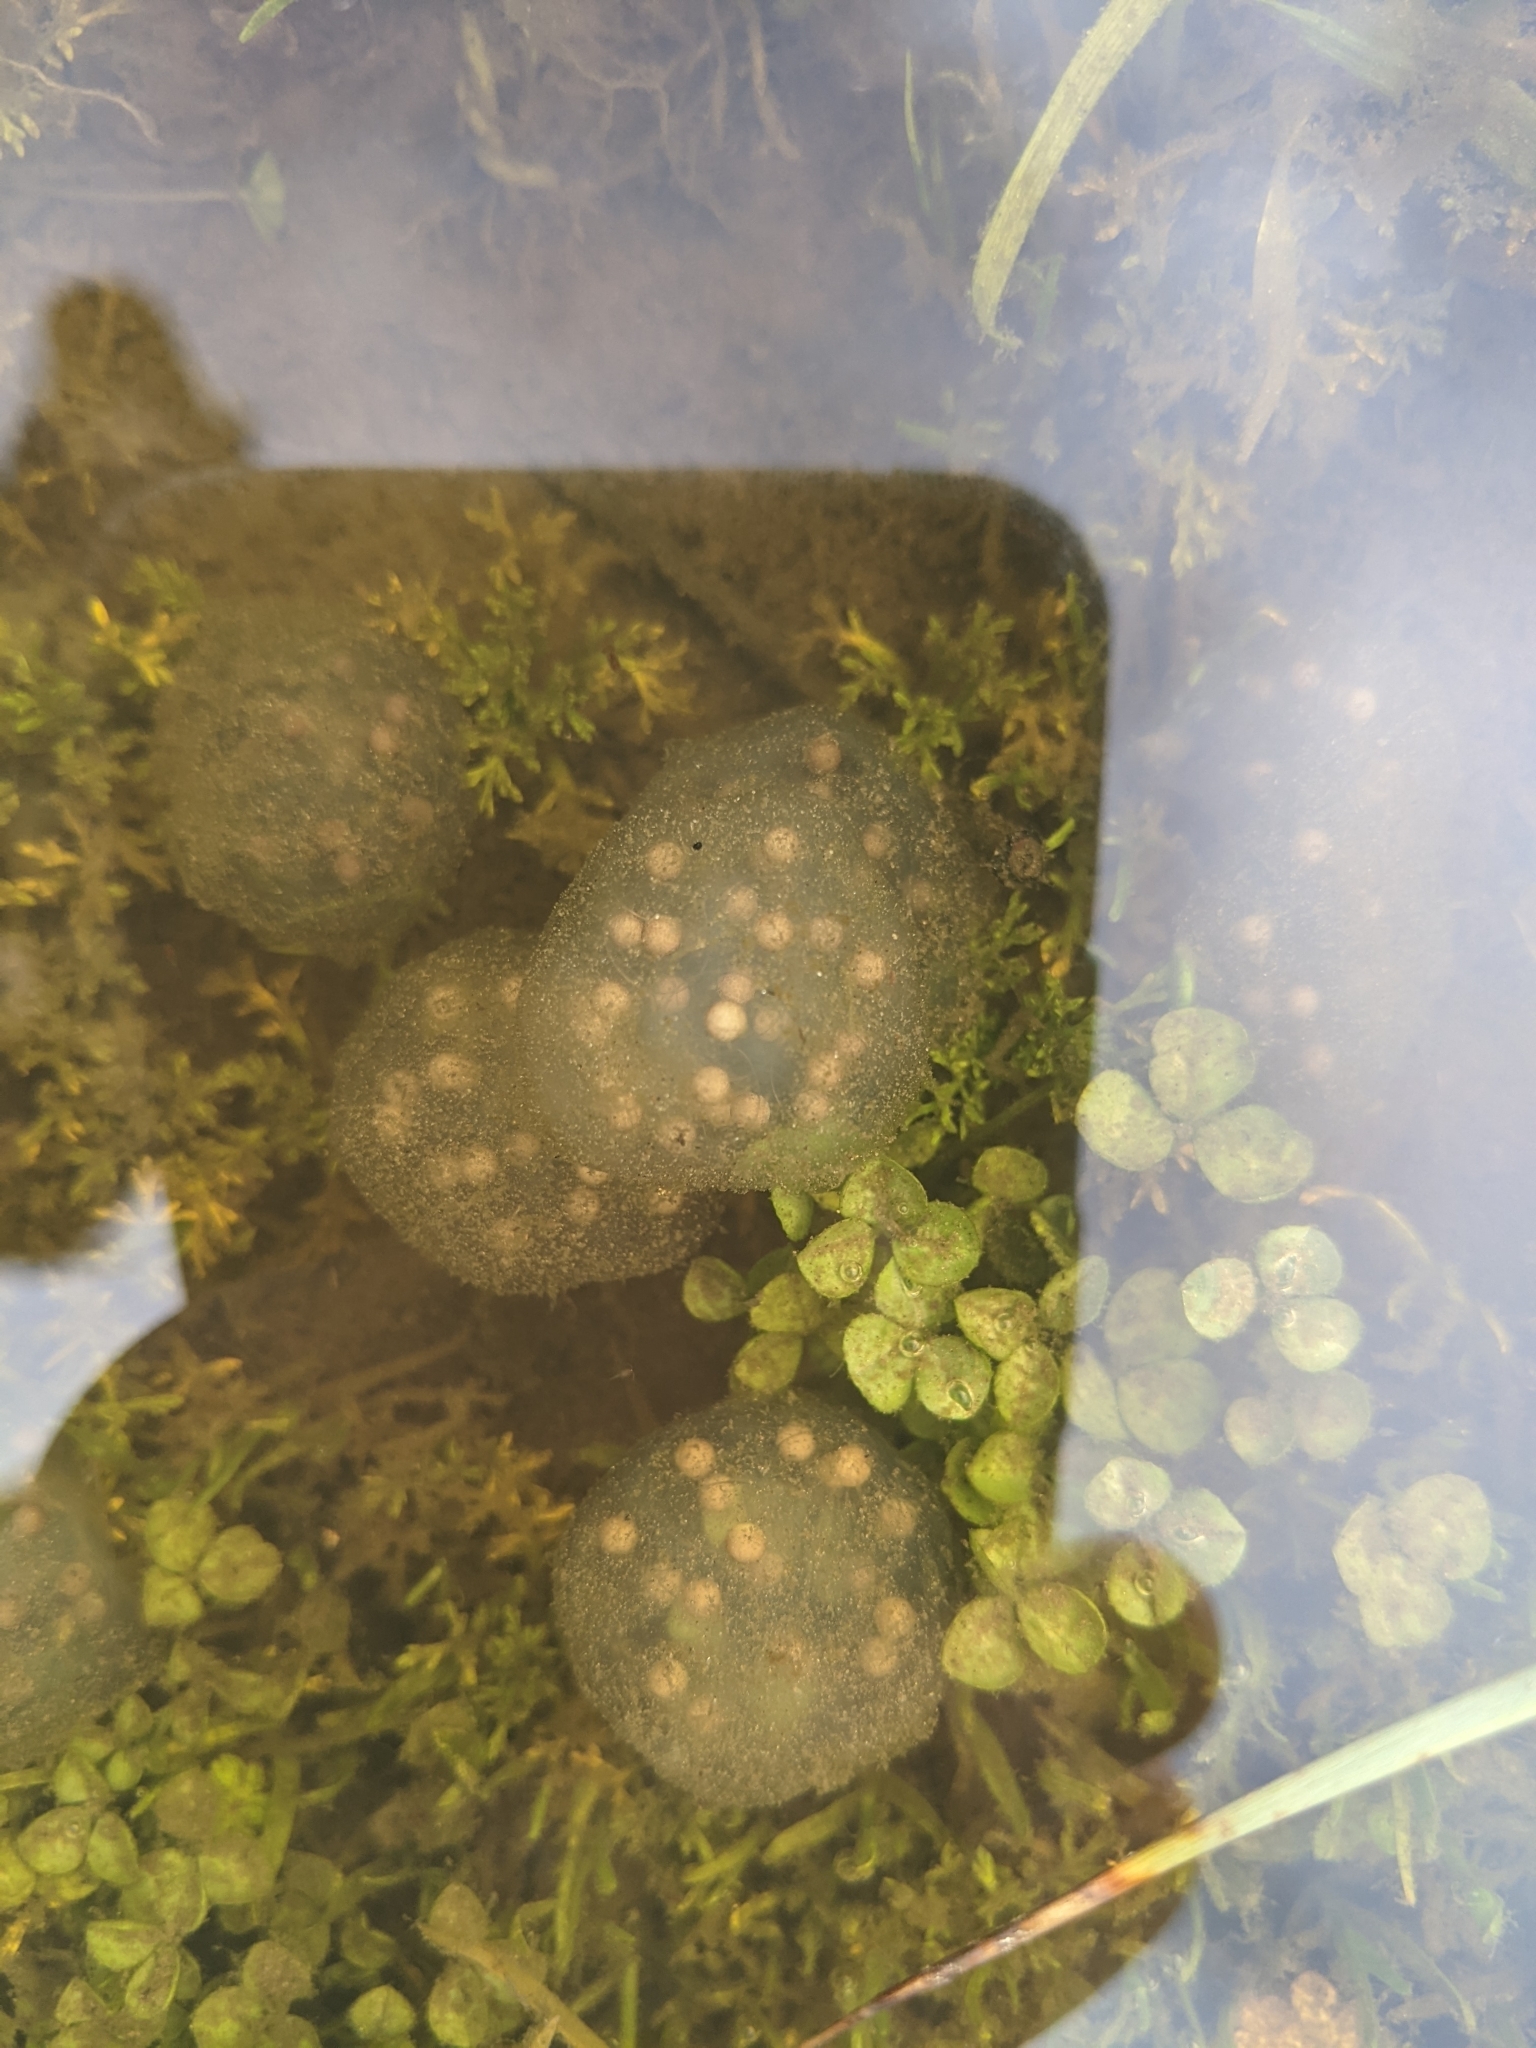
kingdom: Animalia
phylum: Chordata
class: Amphibia
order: Caudata
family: Salamandridae
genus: Taricha
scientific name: Taricha torosa
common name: California newt
